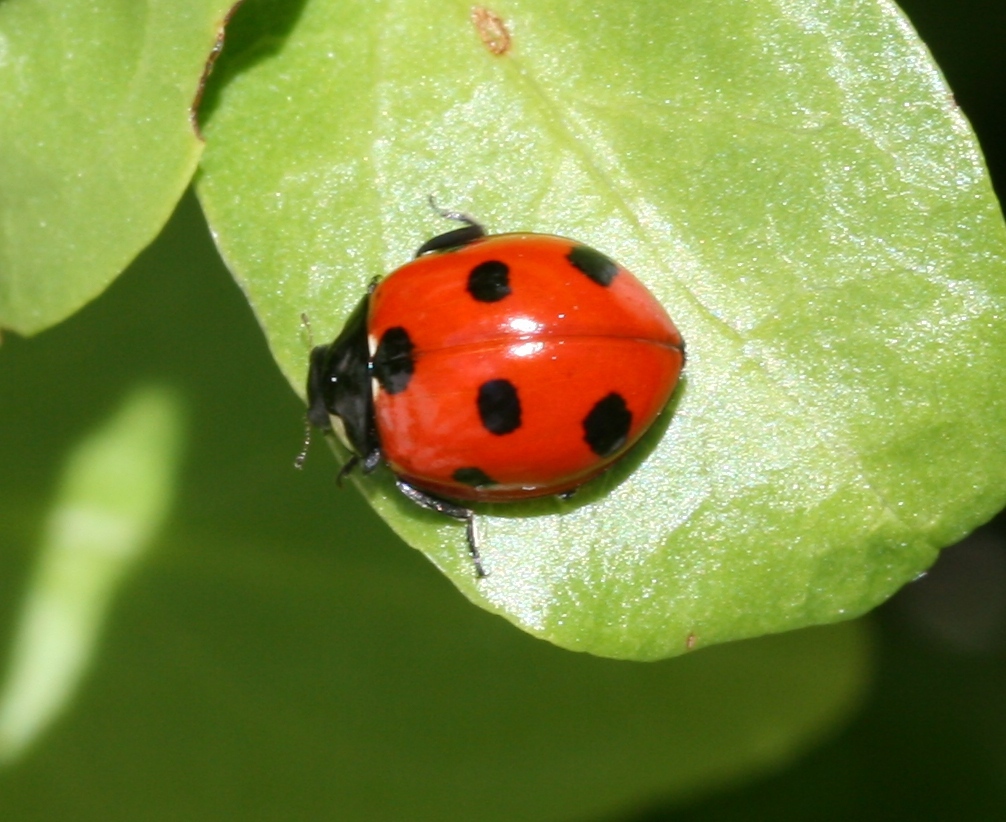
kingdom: Animalia
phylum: Arthropoda
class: Insecta
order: Coleoptera
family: Coccinellidae
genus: Coccinella
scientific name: Coccinella algerica
